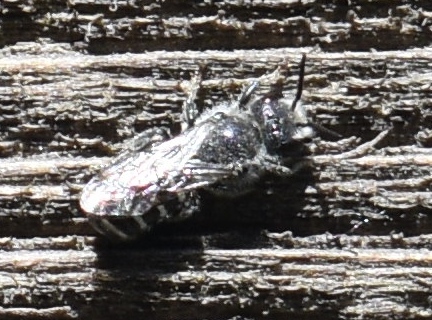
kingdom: Animalia
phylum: Arthropoda
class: Insecta
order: Hymenoptera
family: Megachilidae
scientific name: Megachilidae
